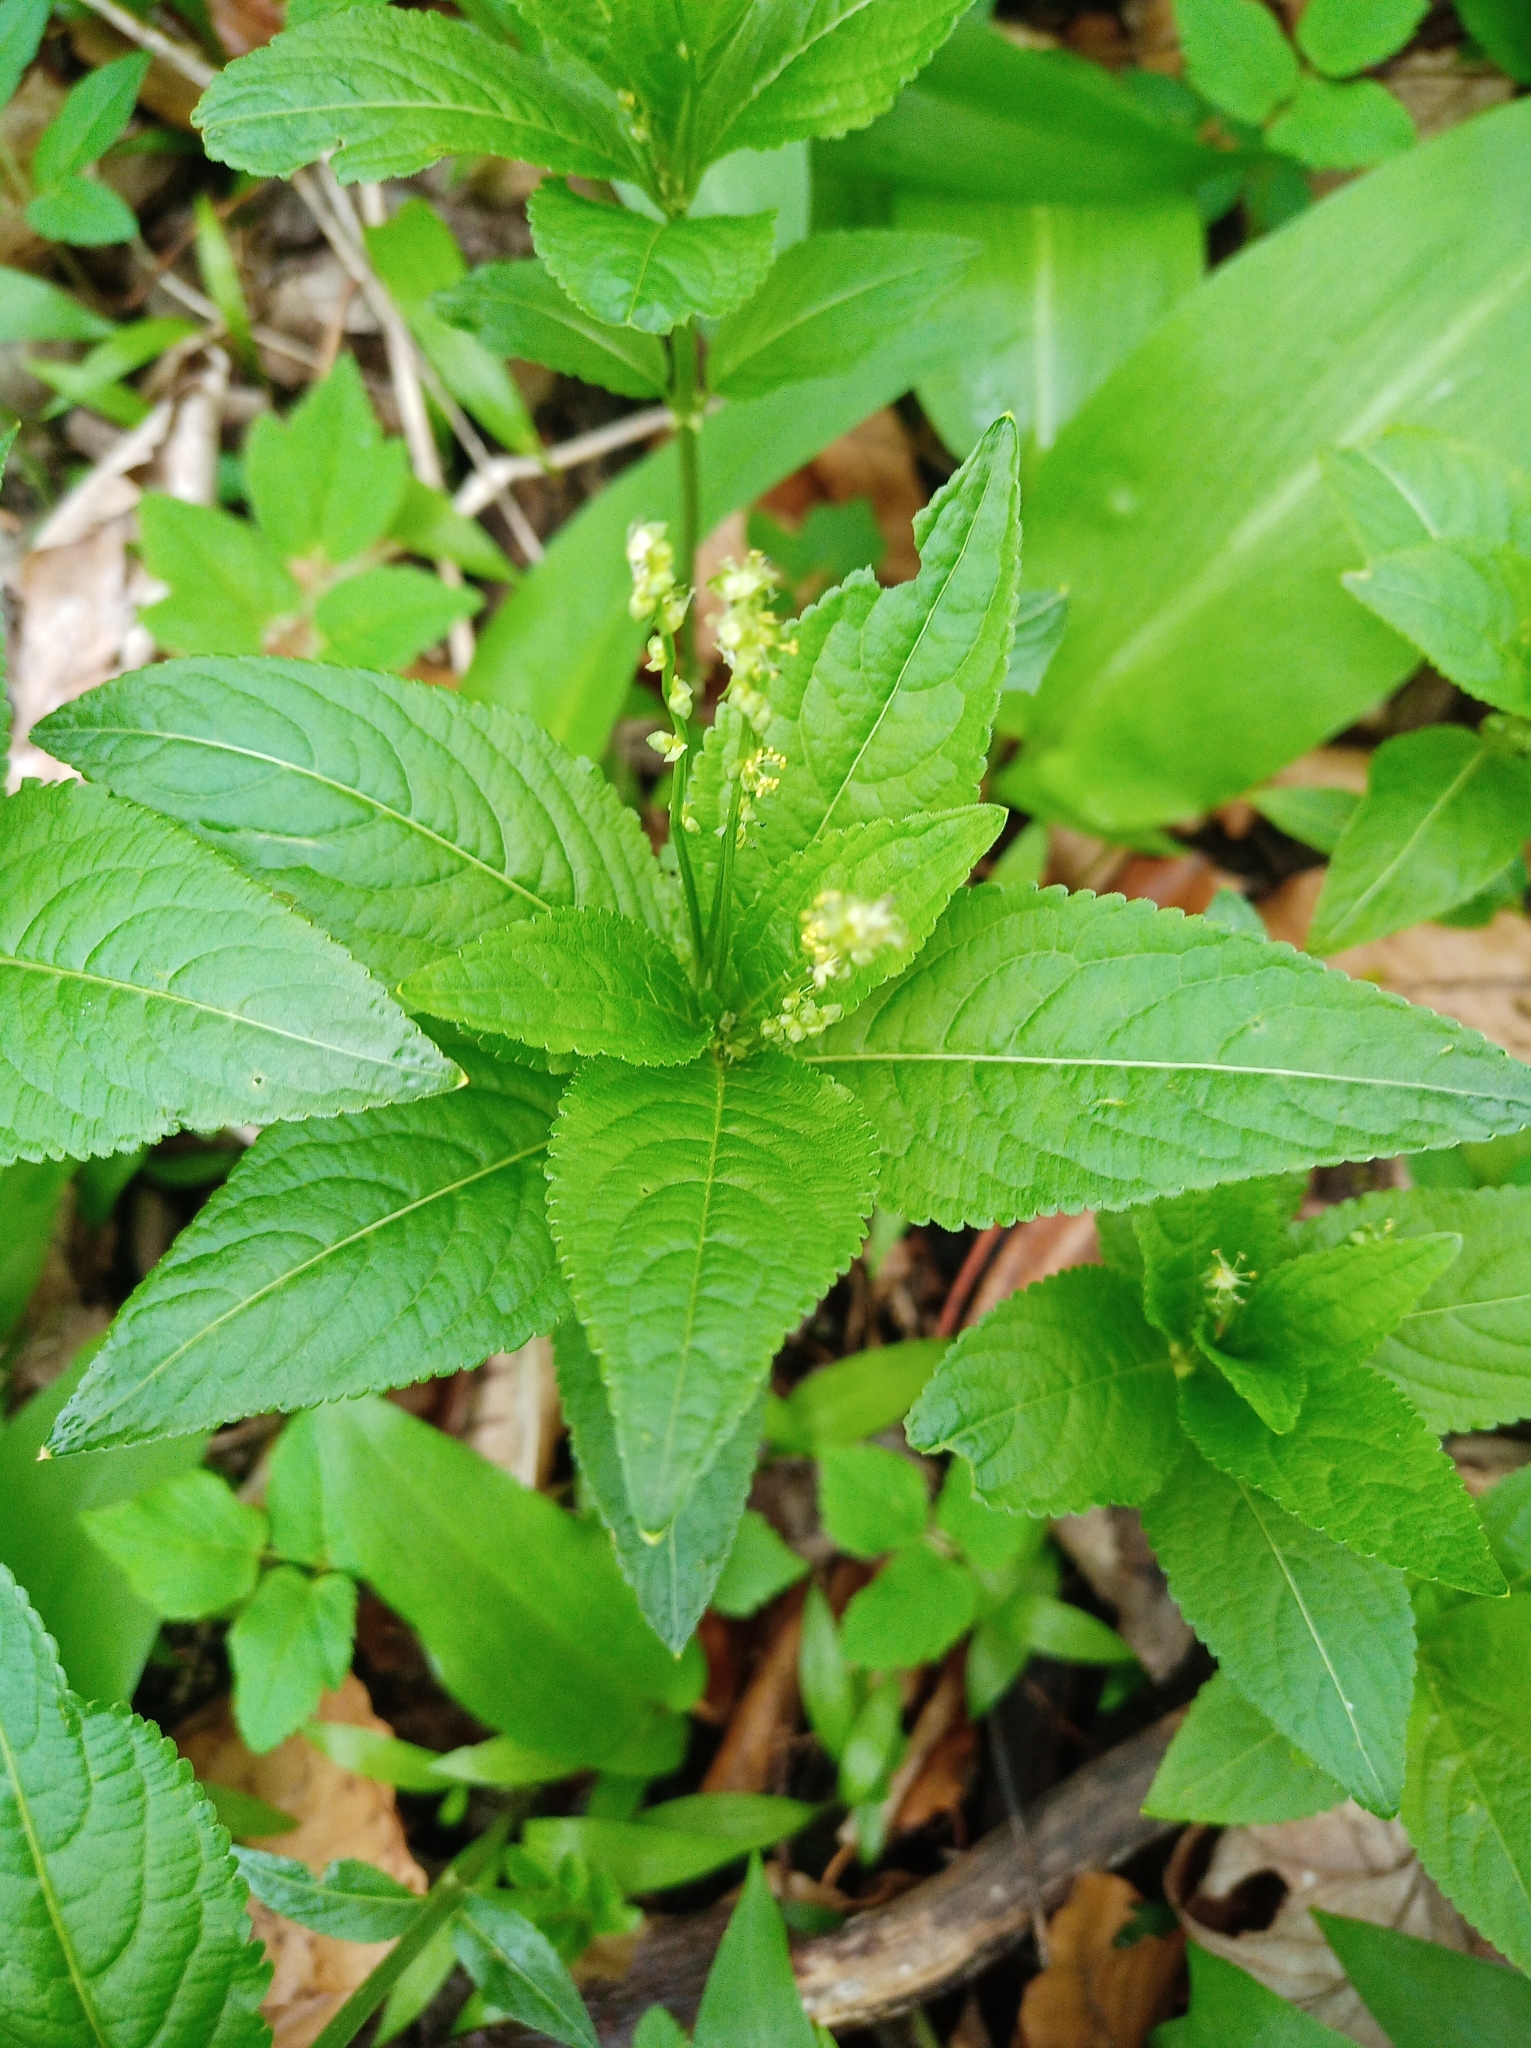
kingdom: Plantae
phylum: Tracheophyta
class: Magnoliopsida
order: Malpighiales
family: Euphorbiaceae
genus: Mercurialis
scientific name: Mercurialis perennis
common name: Dog mercury
